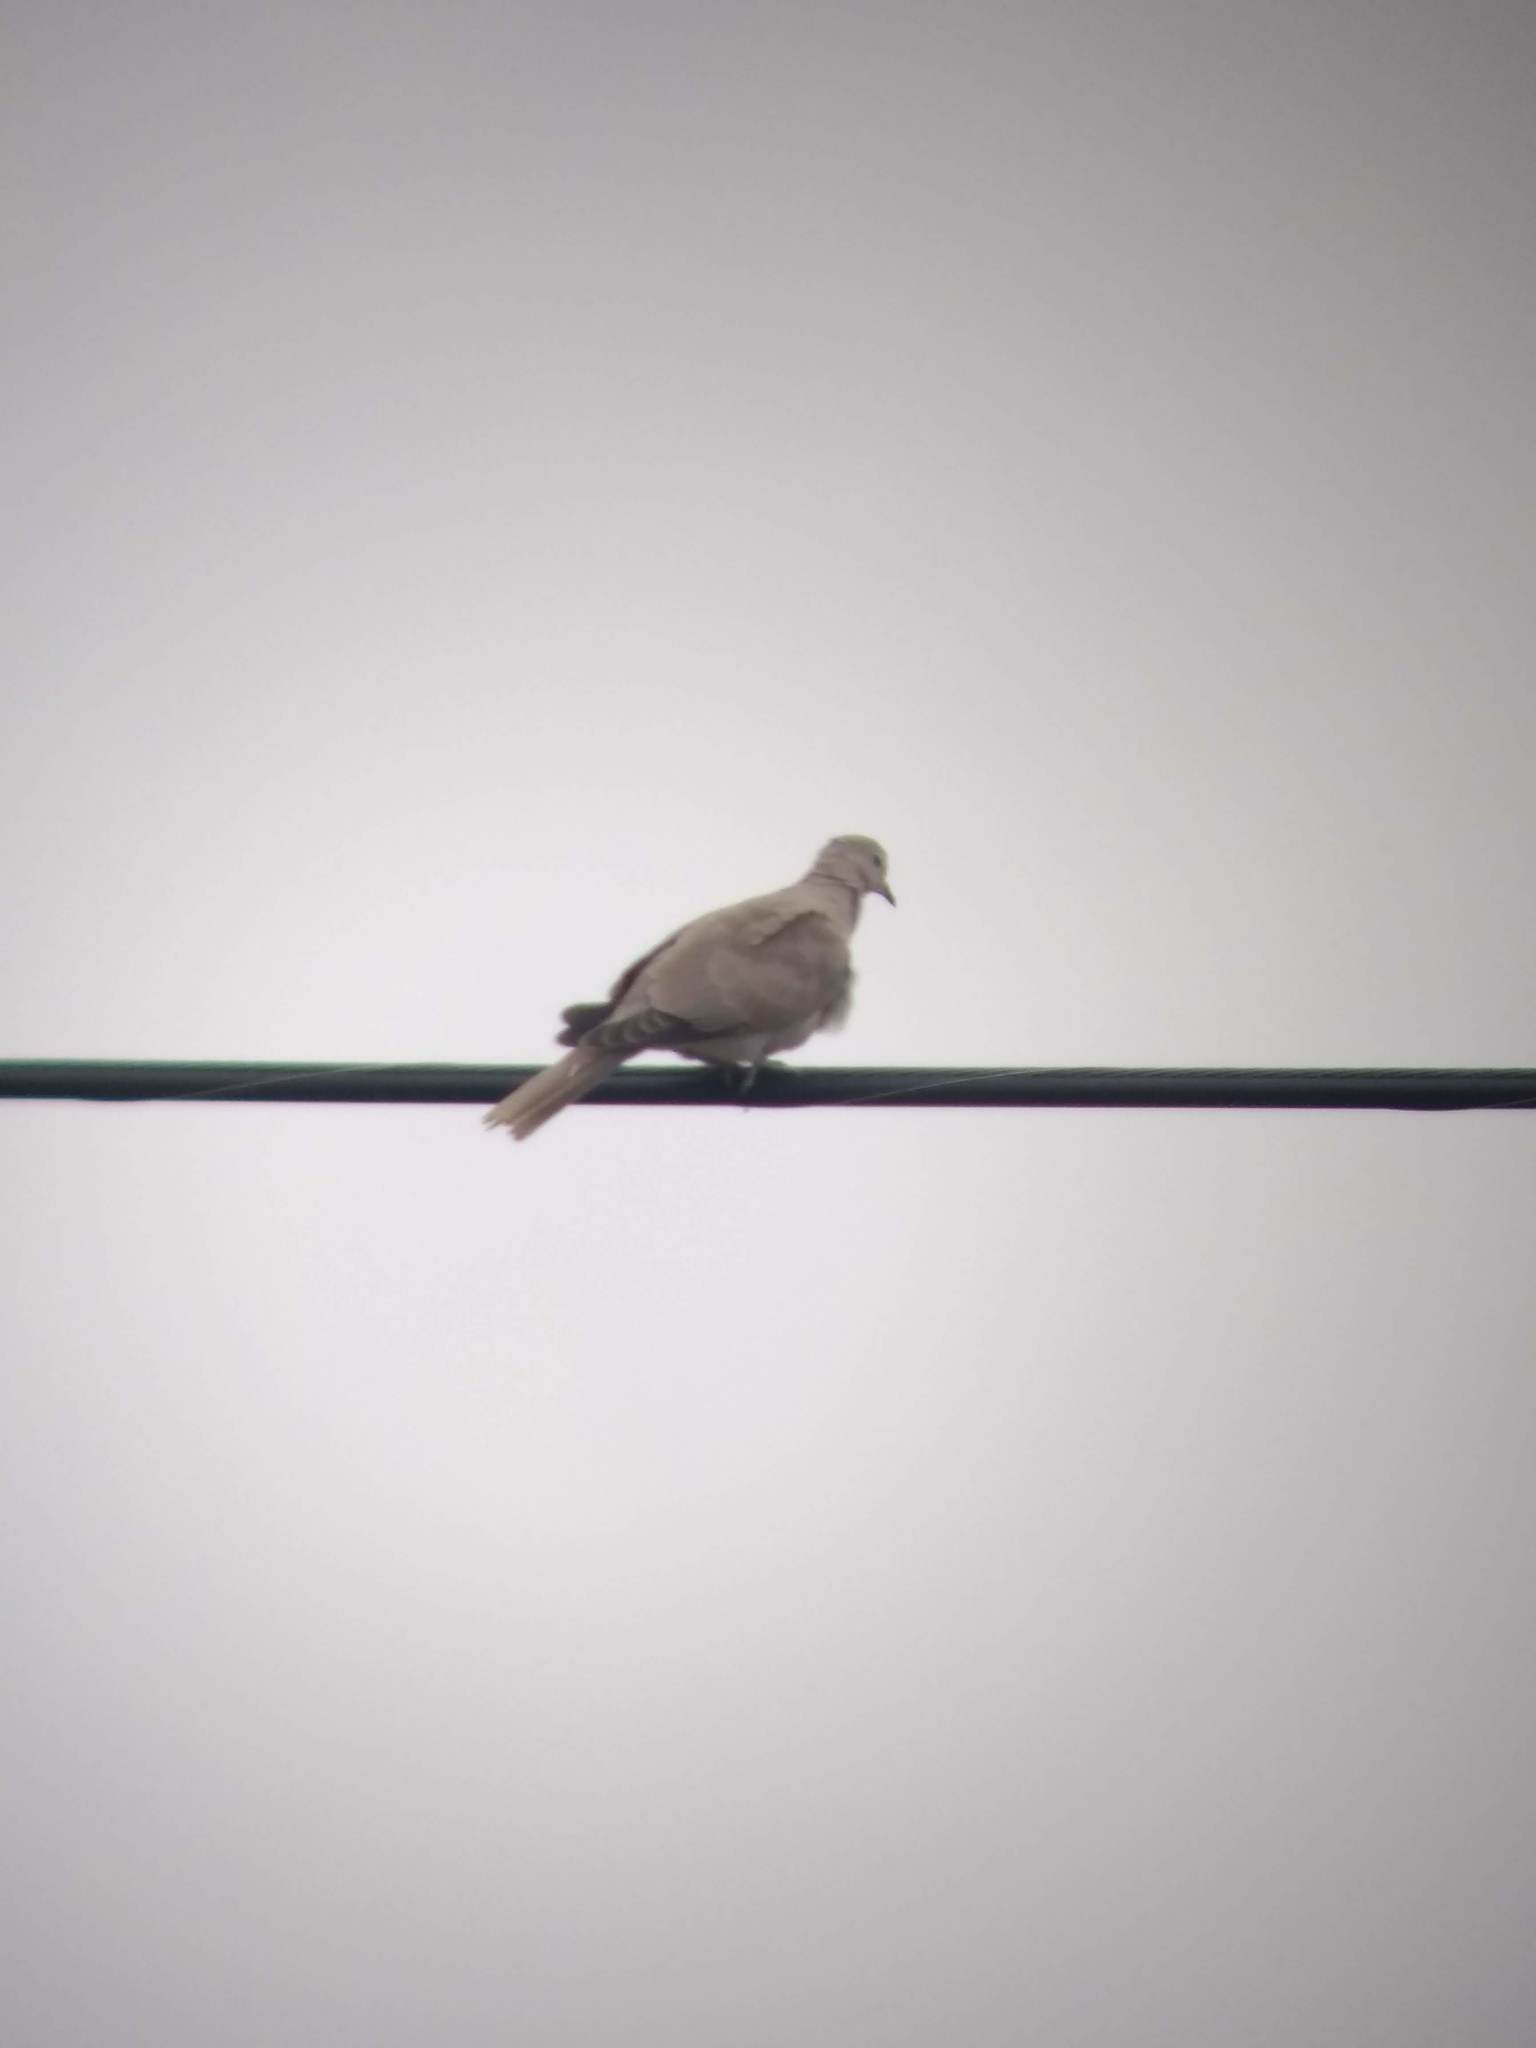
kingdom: Animalia
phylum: Chordata
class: Aves
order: Columbiformes
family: Columbidae
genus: Streptopelia
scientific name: Streptopelia decaocto
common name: Eurasian collared dove
